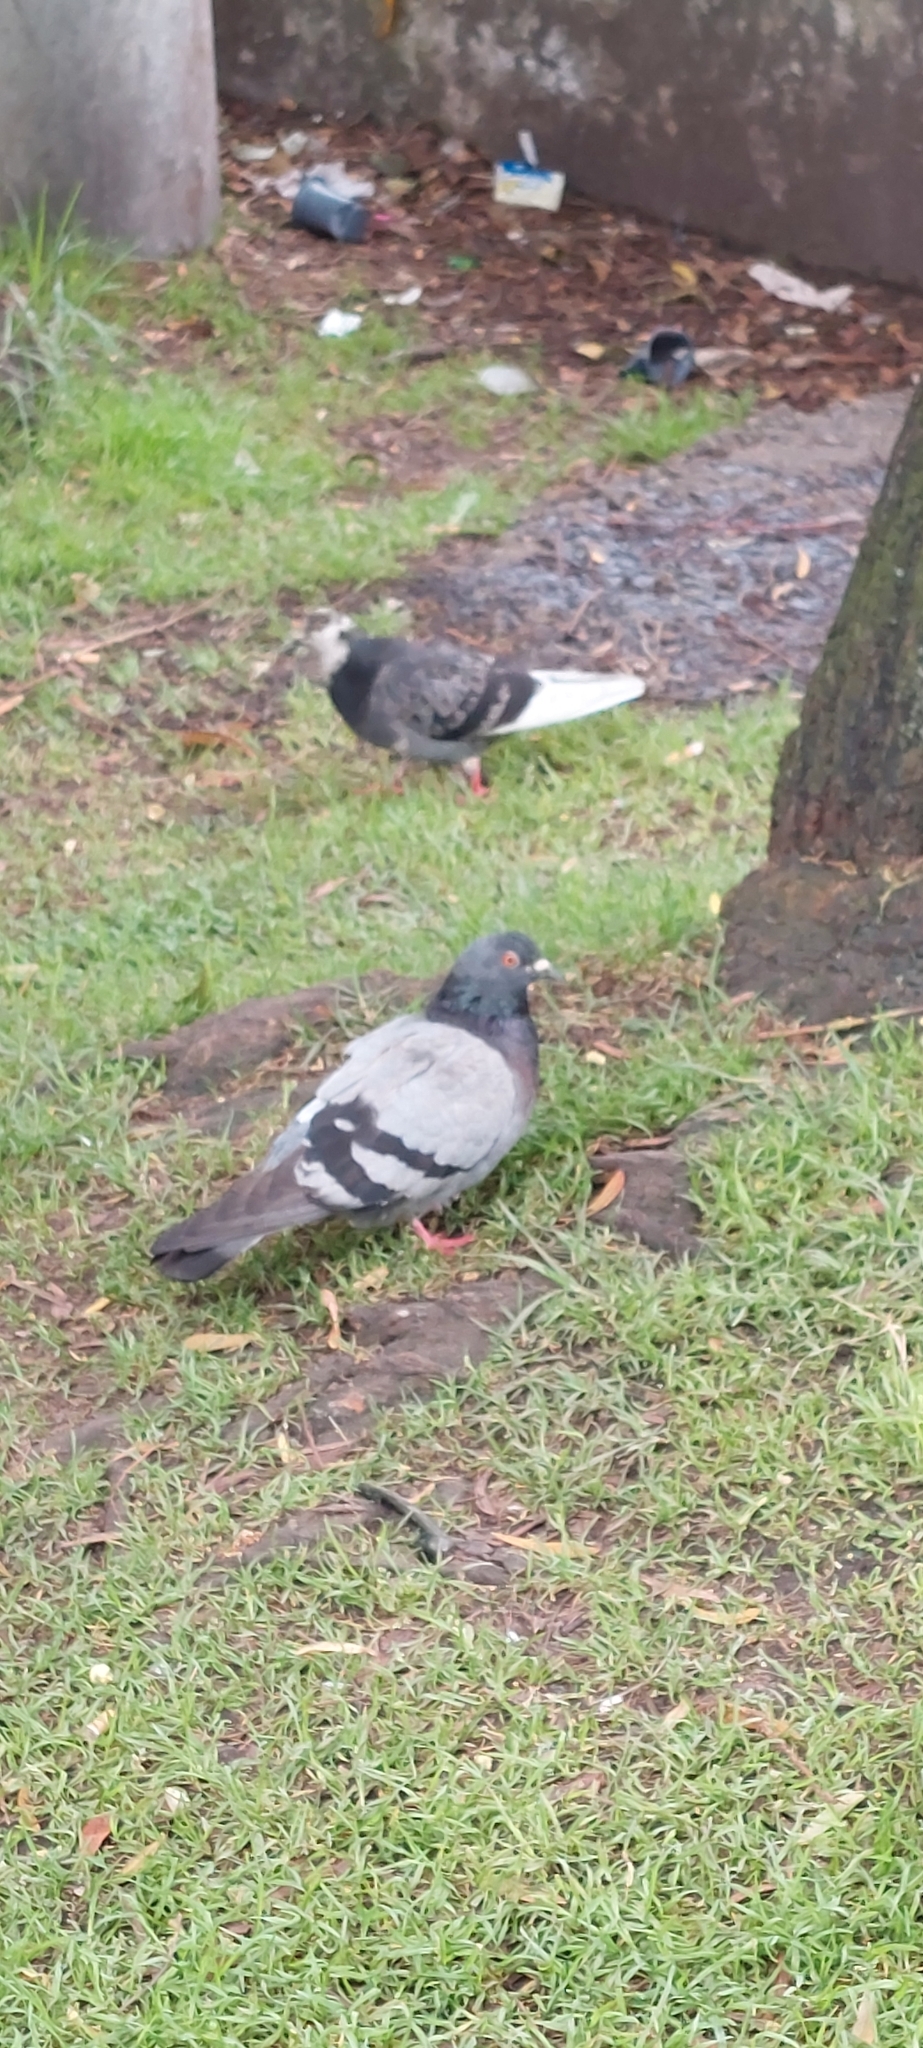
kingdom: Animalia
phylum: Chordata
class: Aves
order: Columbiformes
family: Columbidae
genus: Columba
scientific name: Columba livia
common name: Rock pigeon
